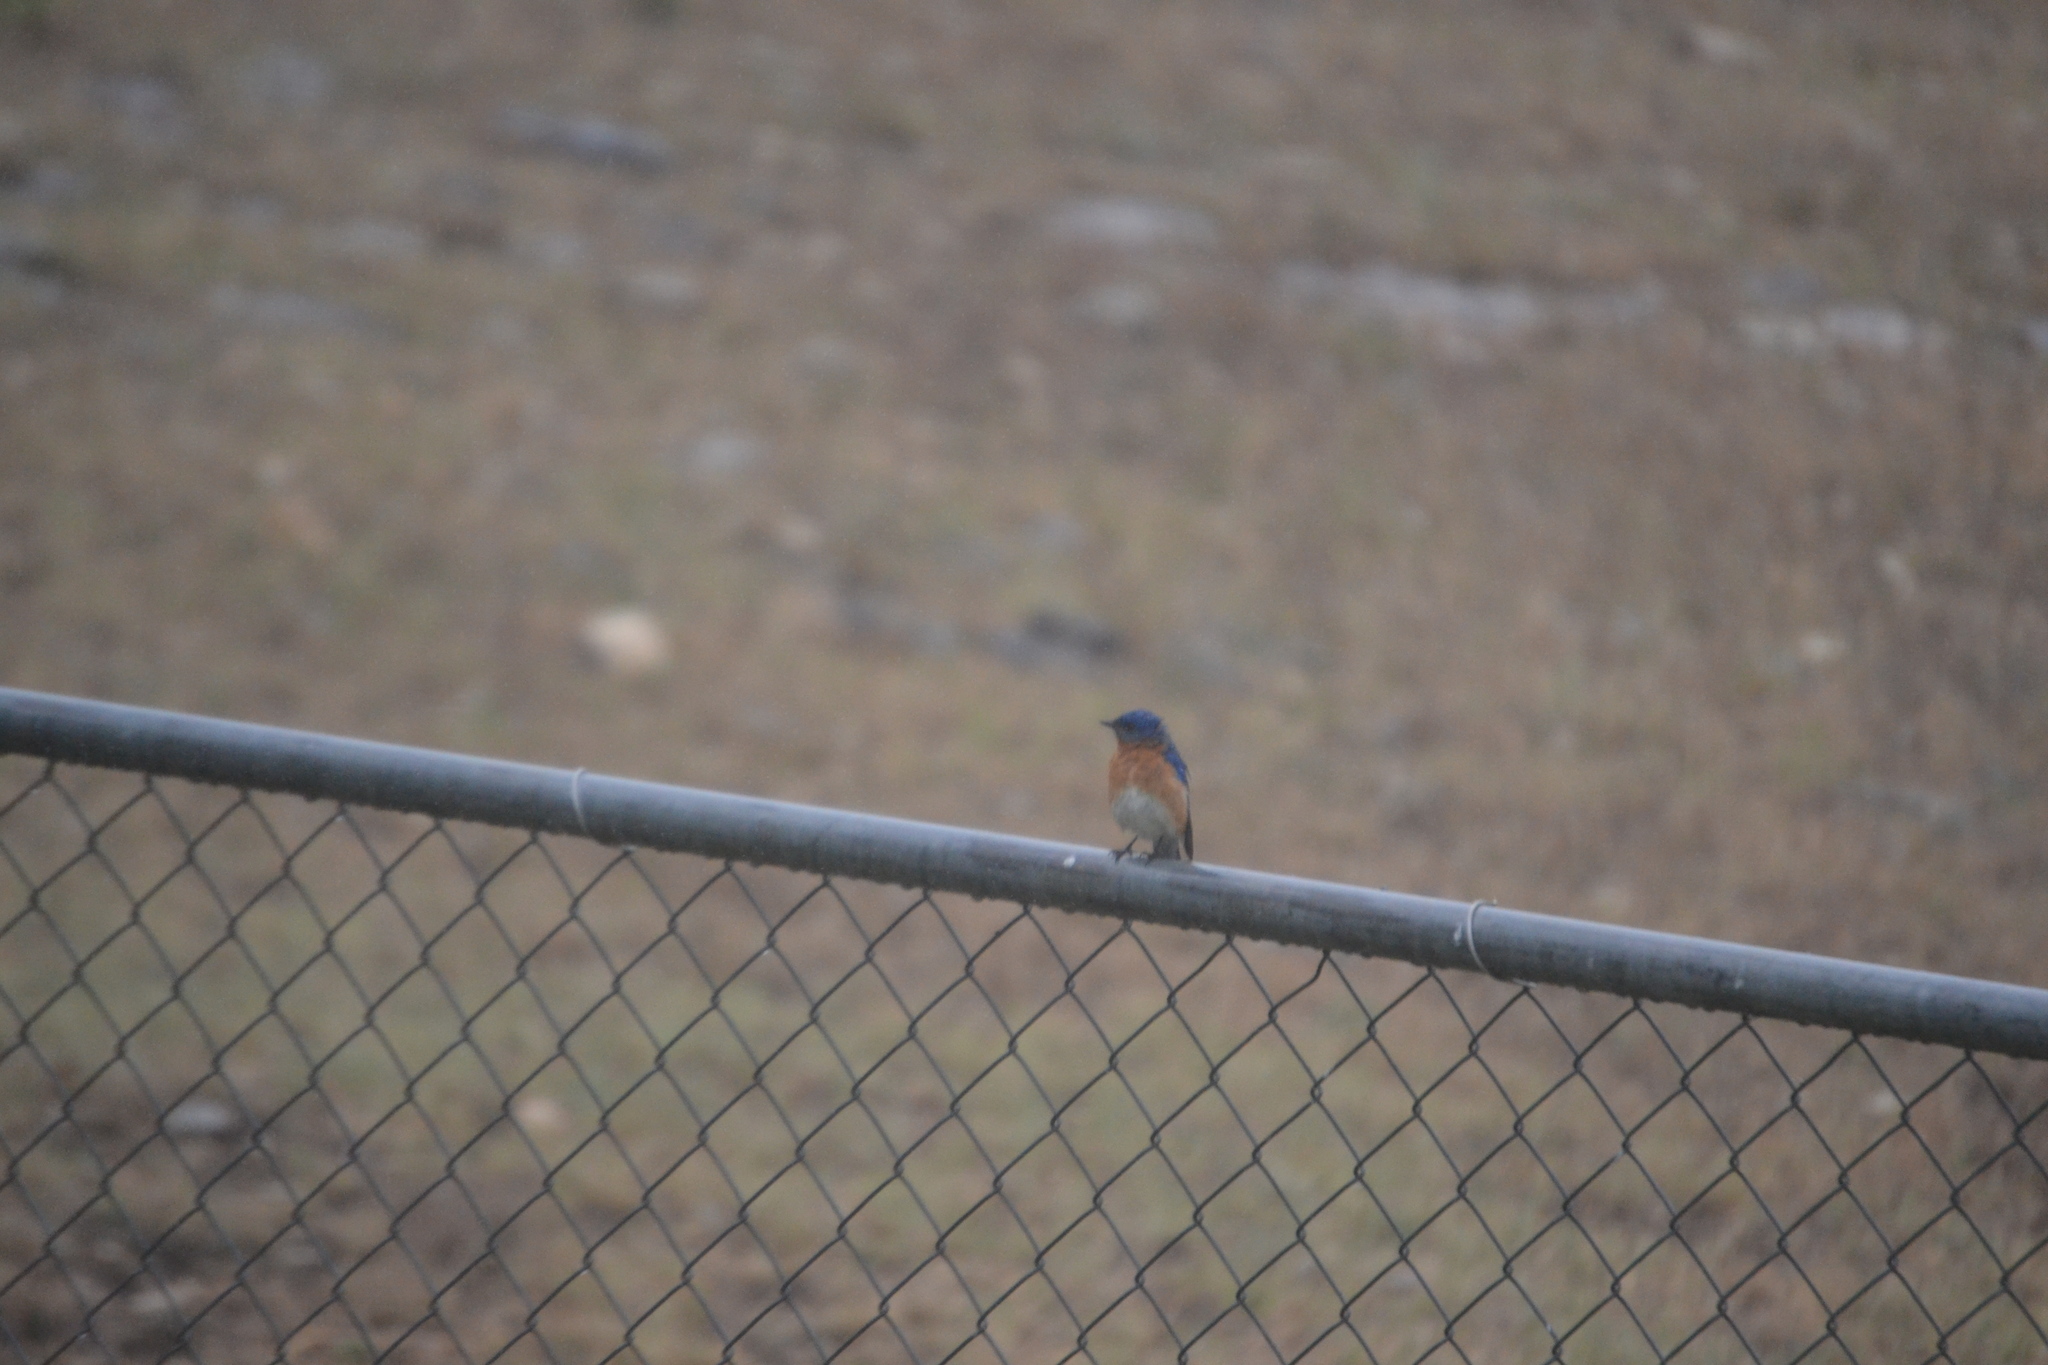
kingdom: Animalia
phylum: Chordata
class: Aves
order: Passeriformes
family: Turdidae
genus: Sialia
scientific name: Sialia sialis
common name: Eastern bluebird
